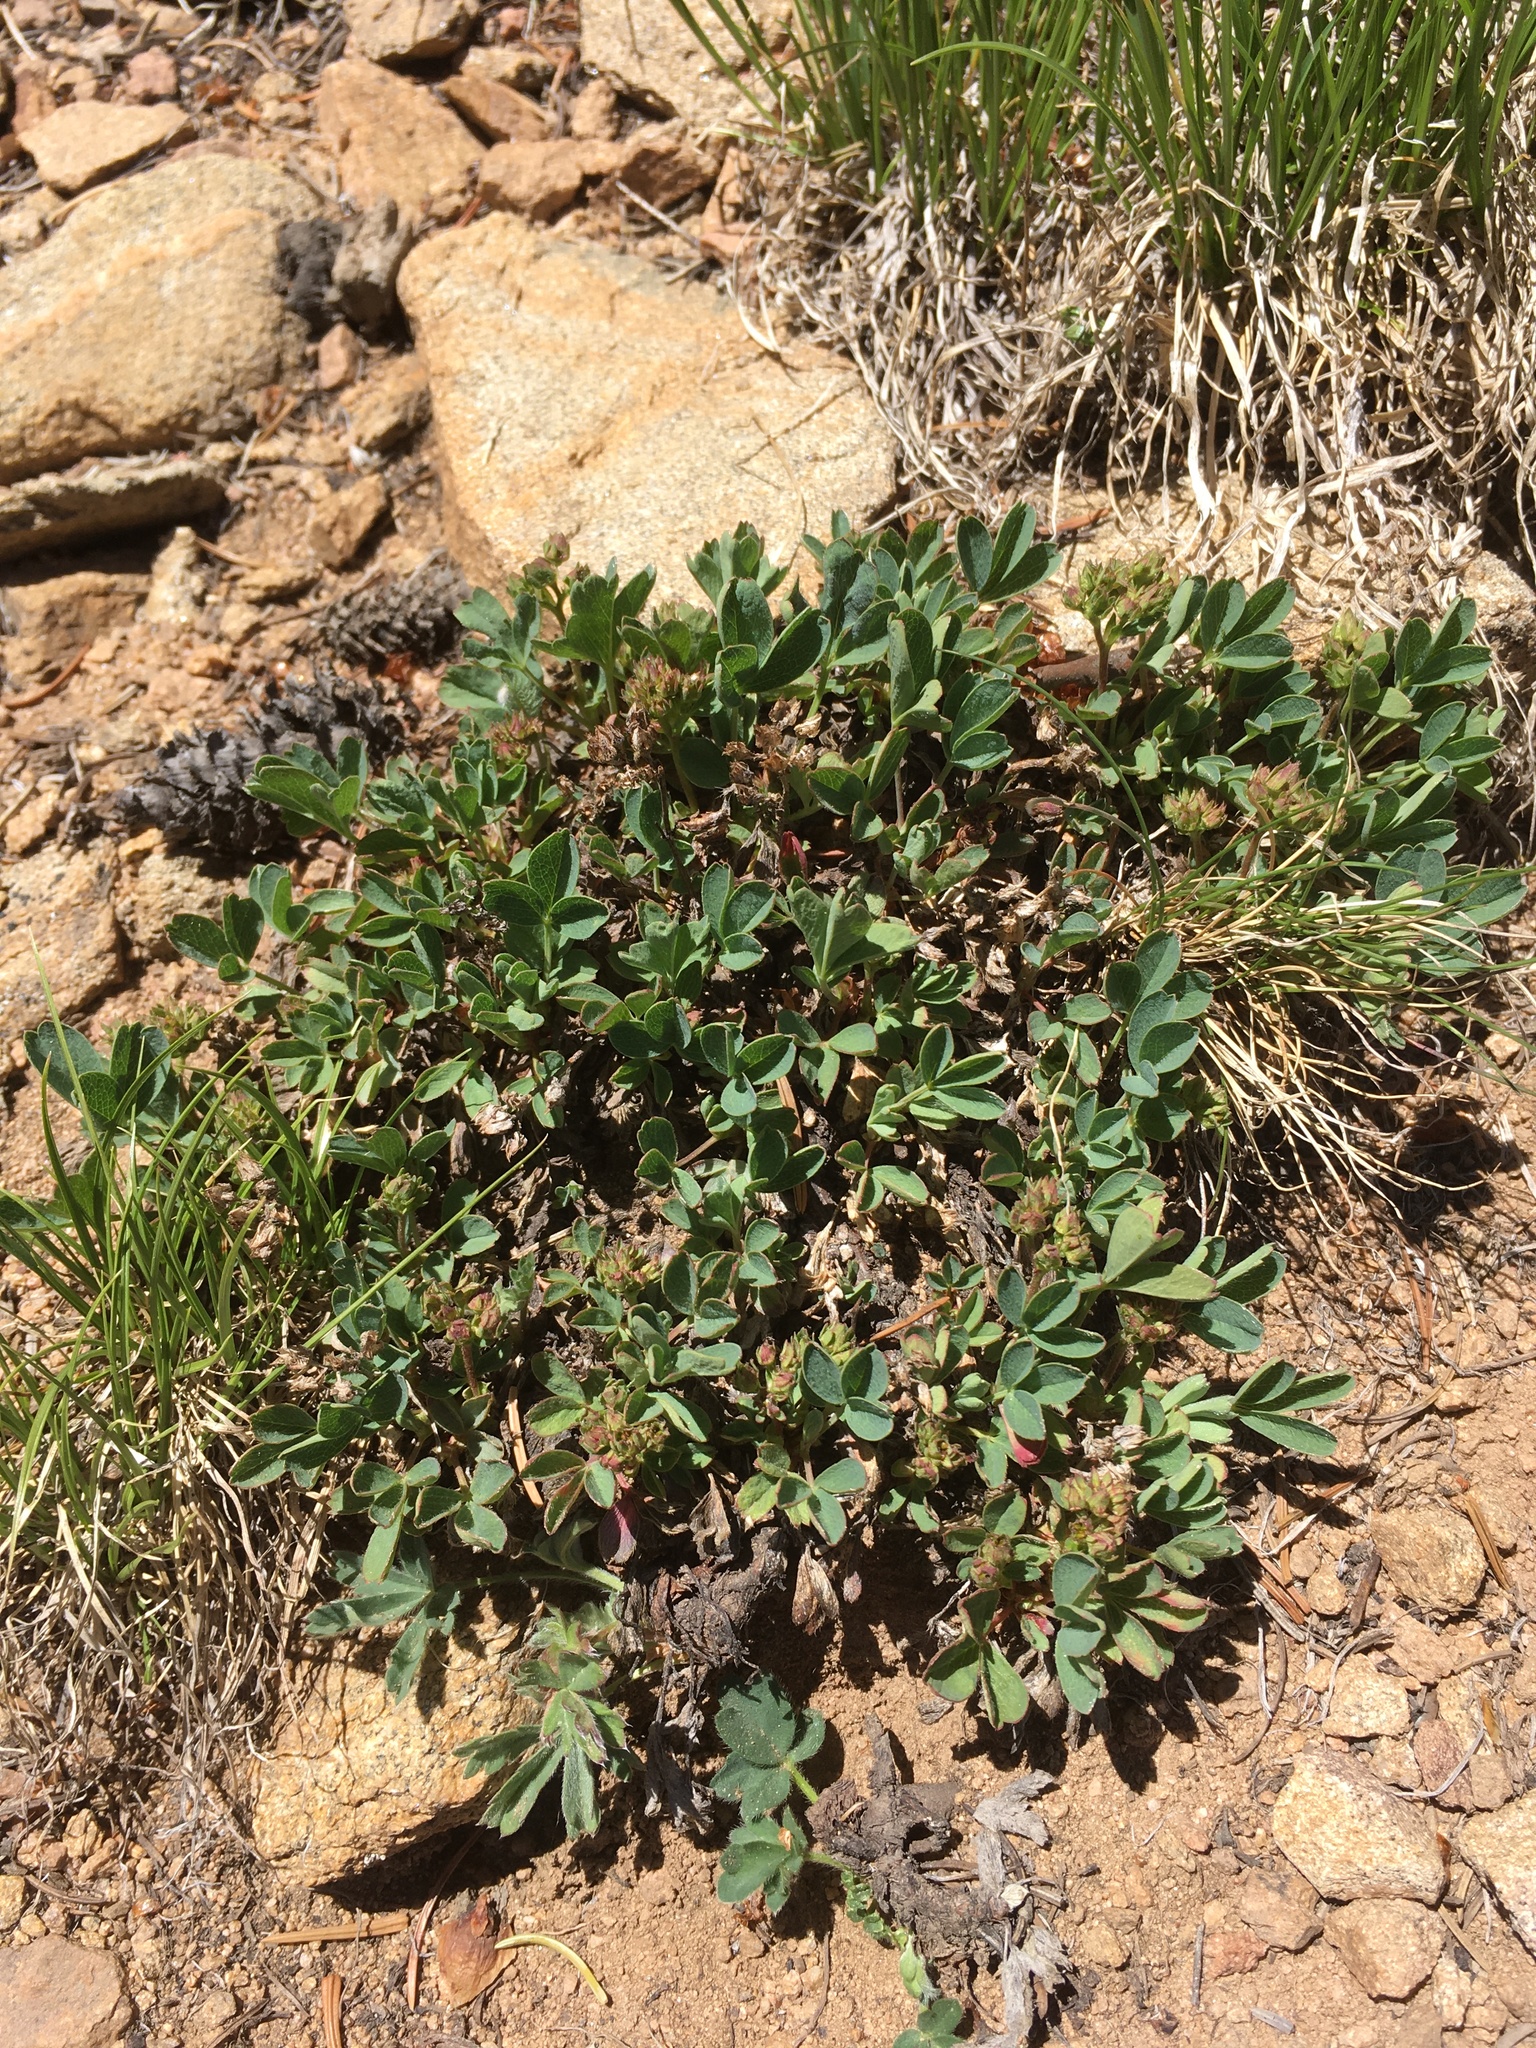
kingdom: Plantae
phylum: Tracheophyta
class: Magnoliopsida
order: Rosales
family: Rosaceae
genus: Sibbaldia
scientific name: Sibbaldia procumbens
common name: Creeping sibbaldia
